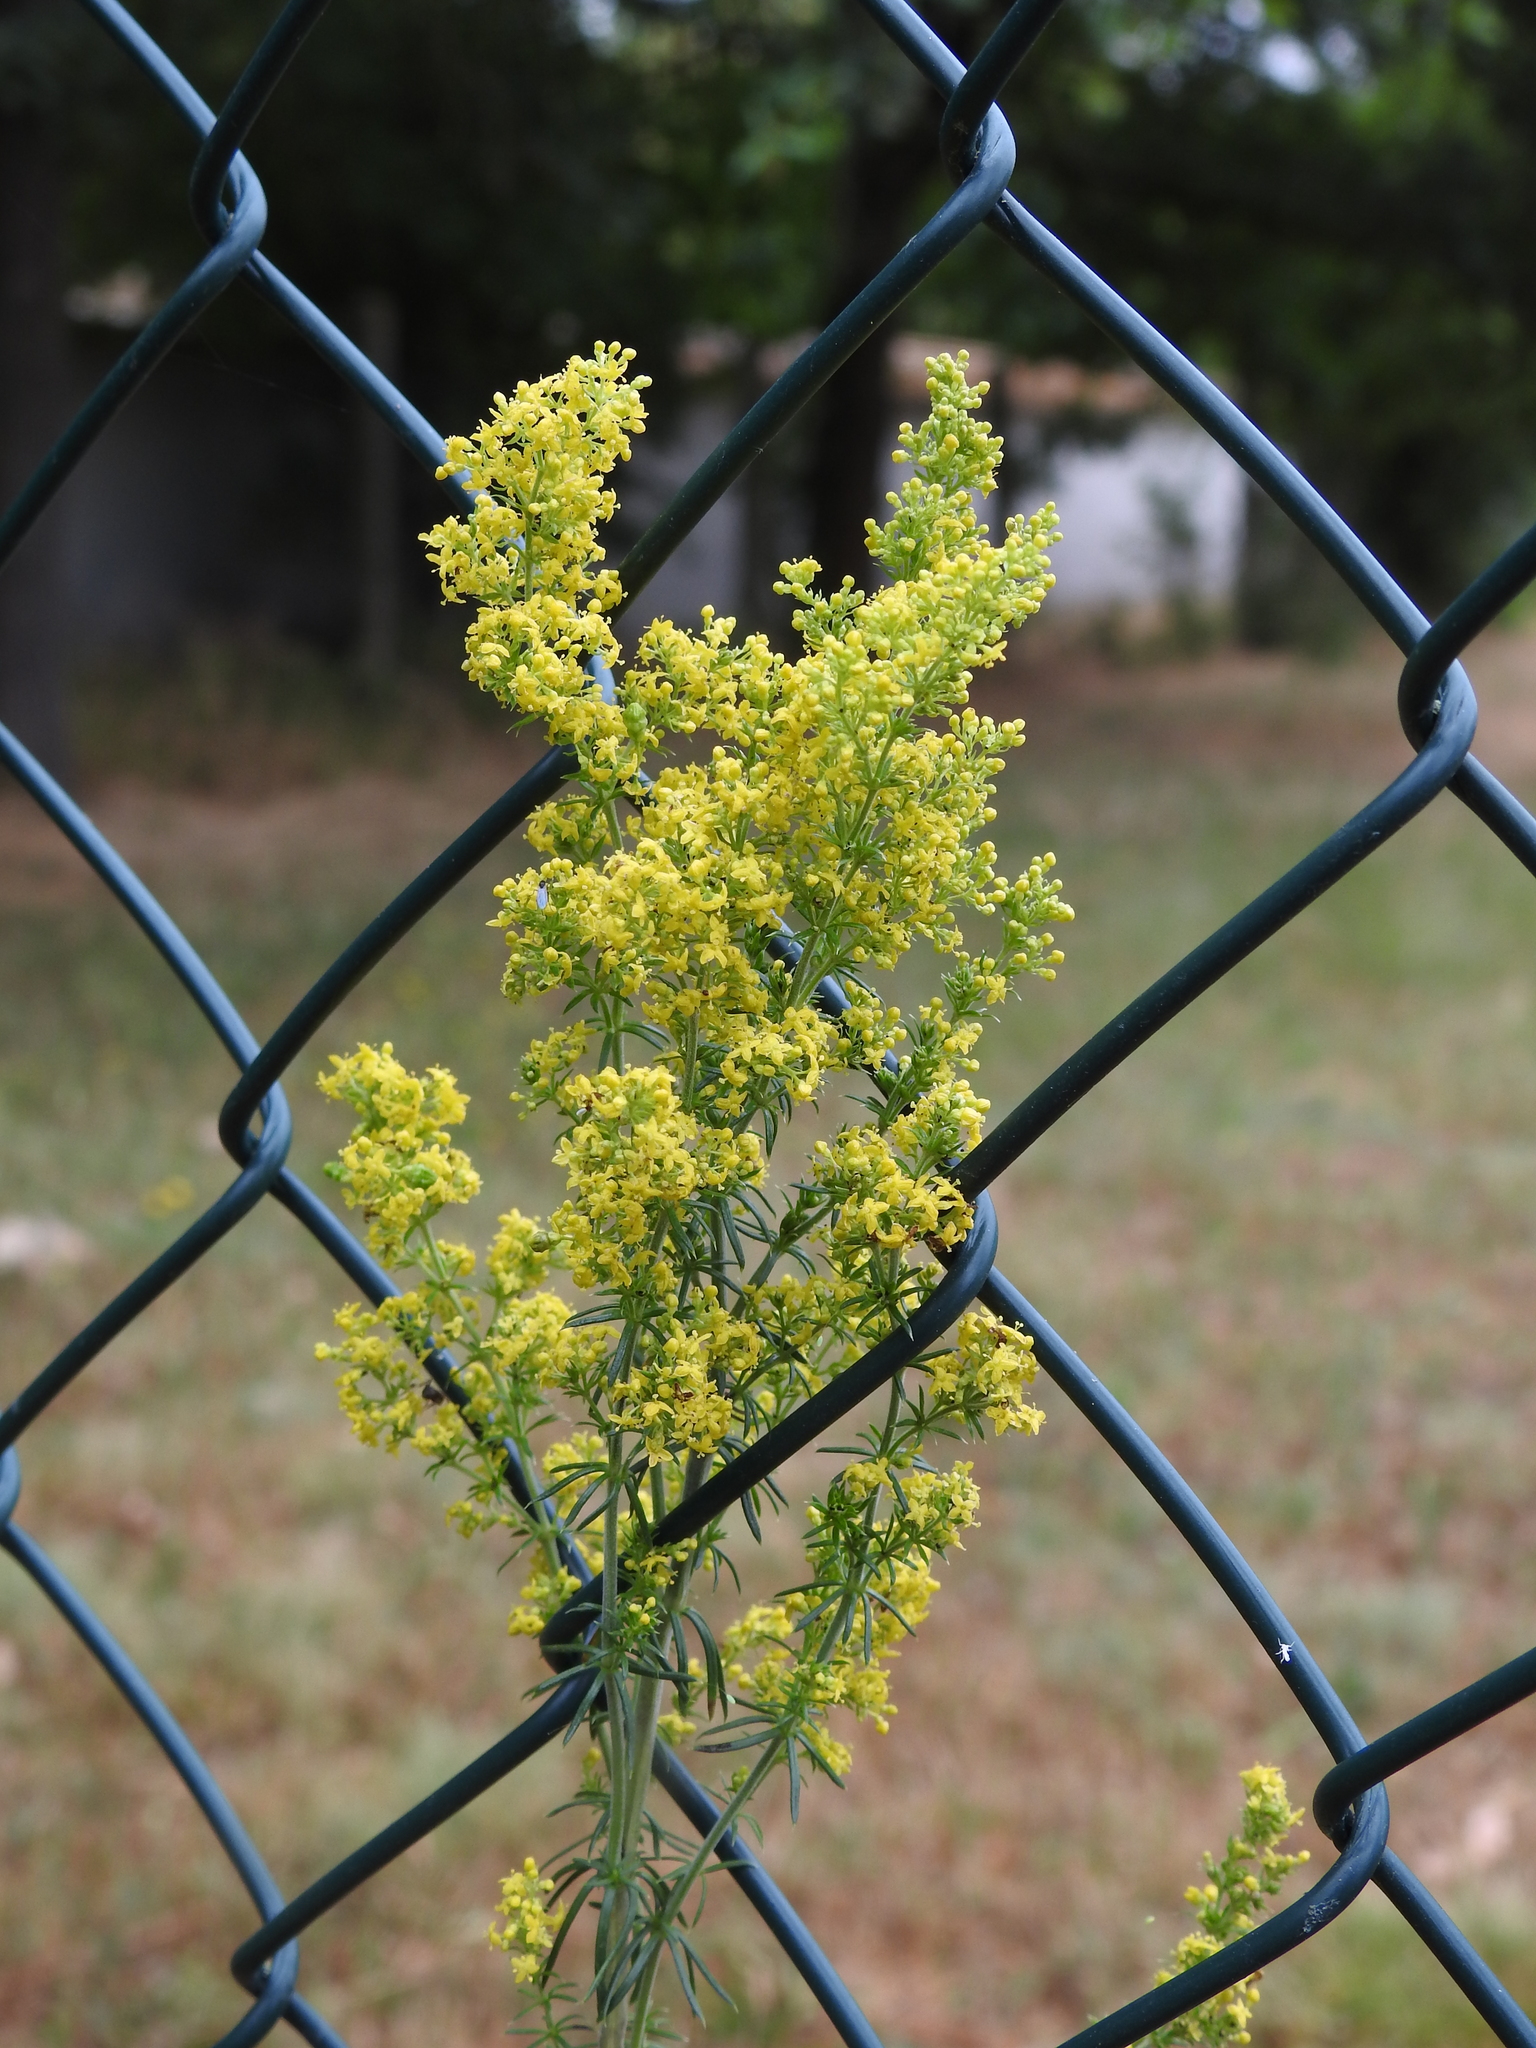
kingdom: Plantae
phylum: Tracheophyta
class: Magnoliopsida
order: Gentianales
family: Rubiaceae
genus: Galium
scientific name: Galium verum
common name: Lady's bedstraw
